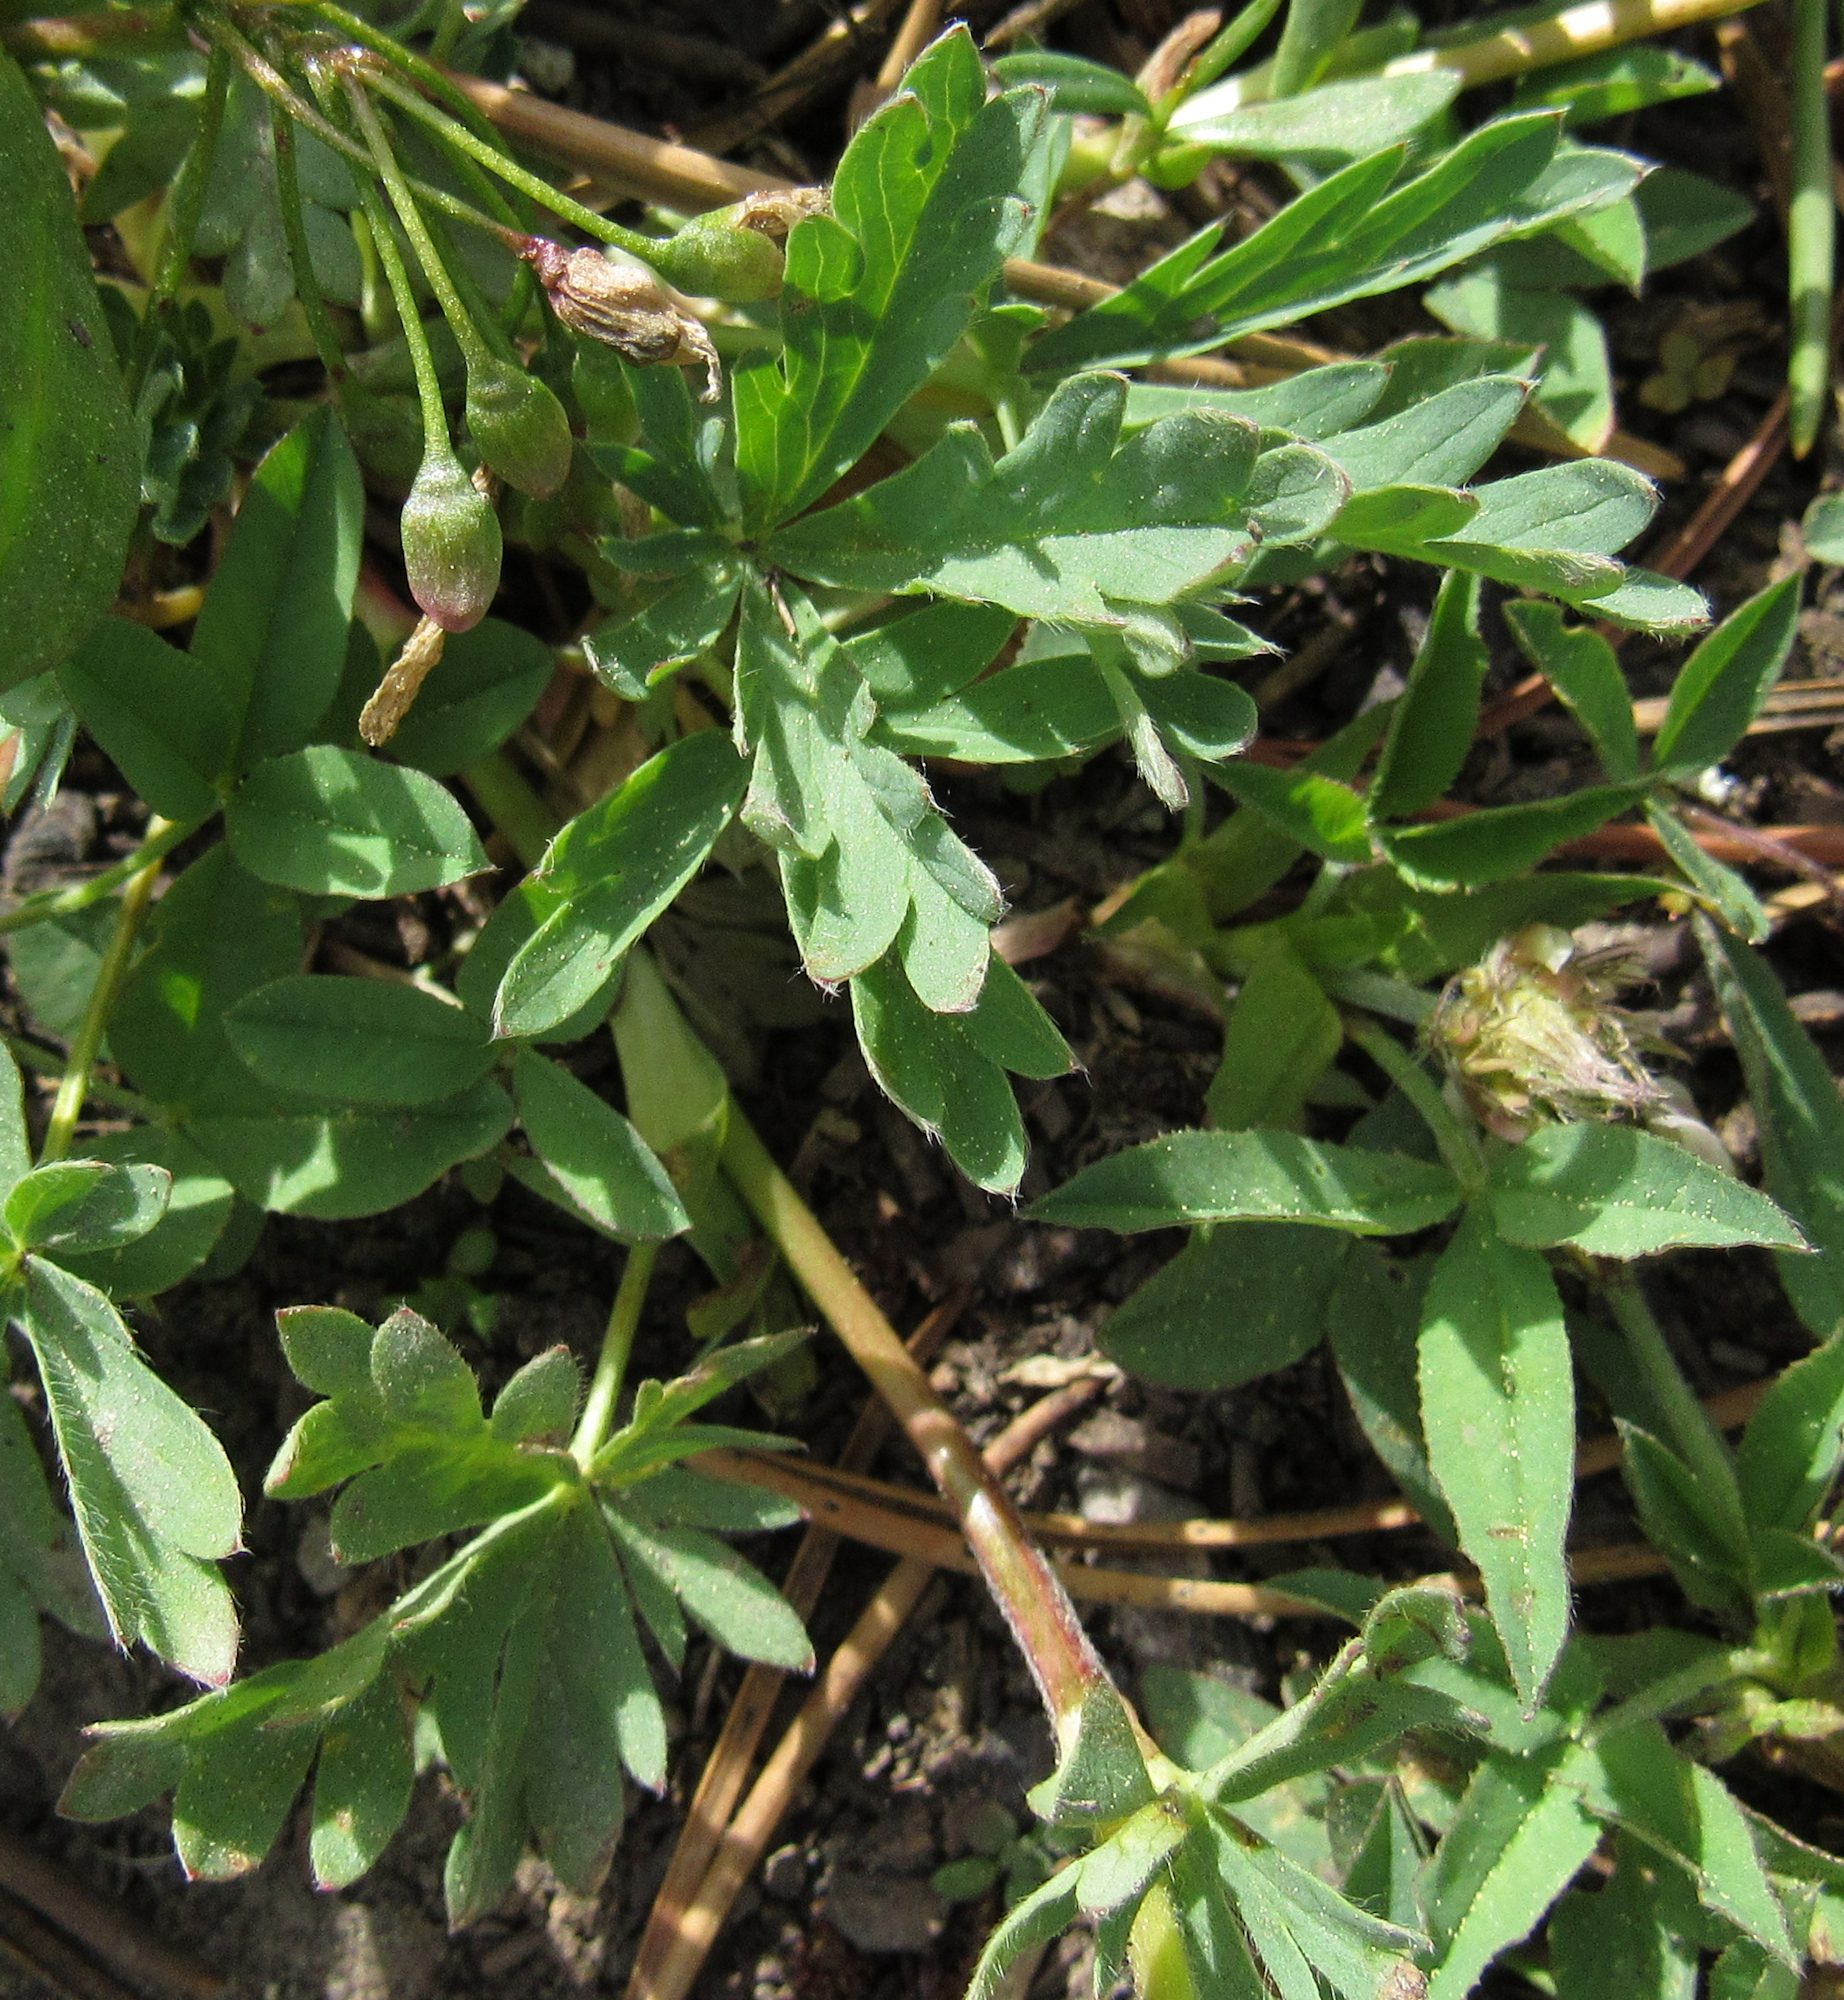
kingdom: Plantae
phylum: Tracheophyta
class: Magnoliopsida
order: Rosales
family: Rosaceae
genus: Potentilla
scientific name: Potentilla glaucophylla
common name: Blue-leaved cinquefoil
